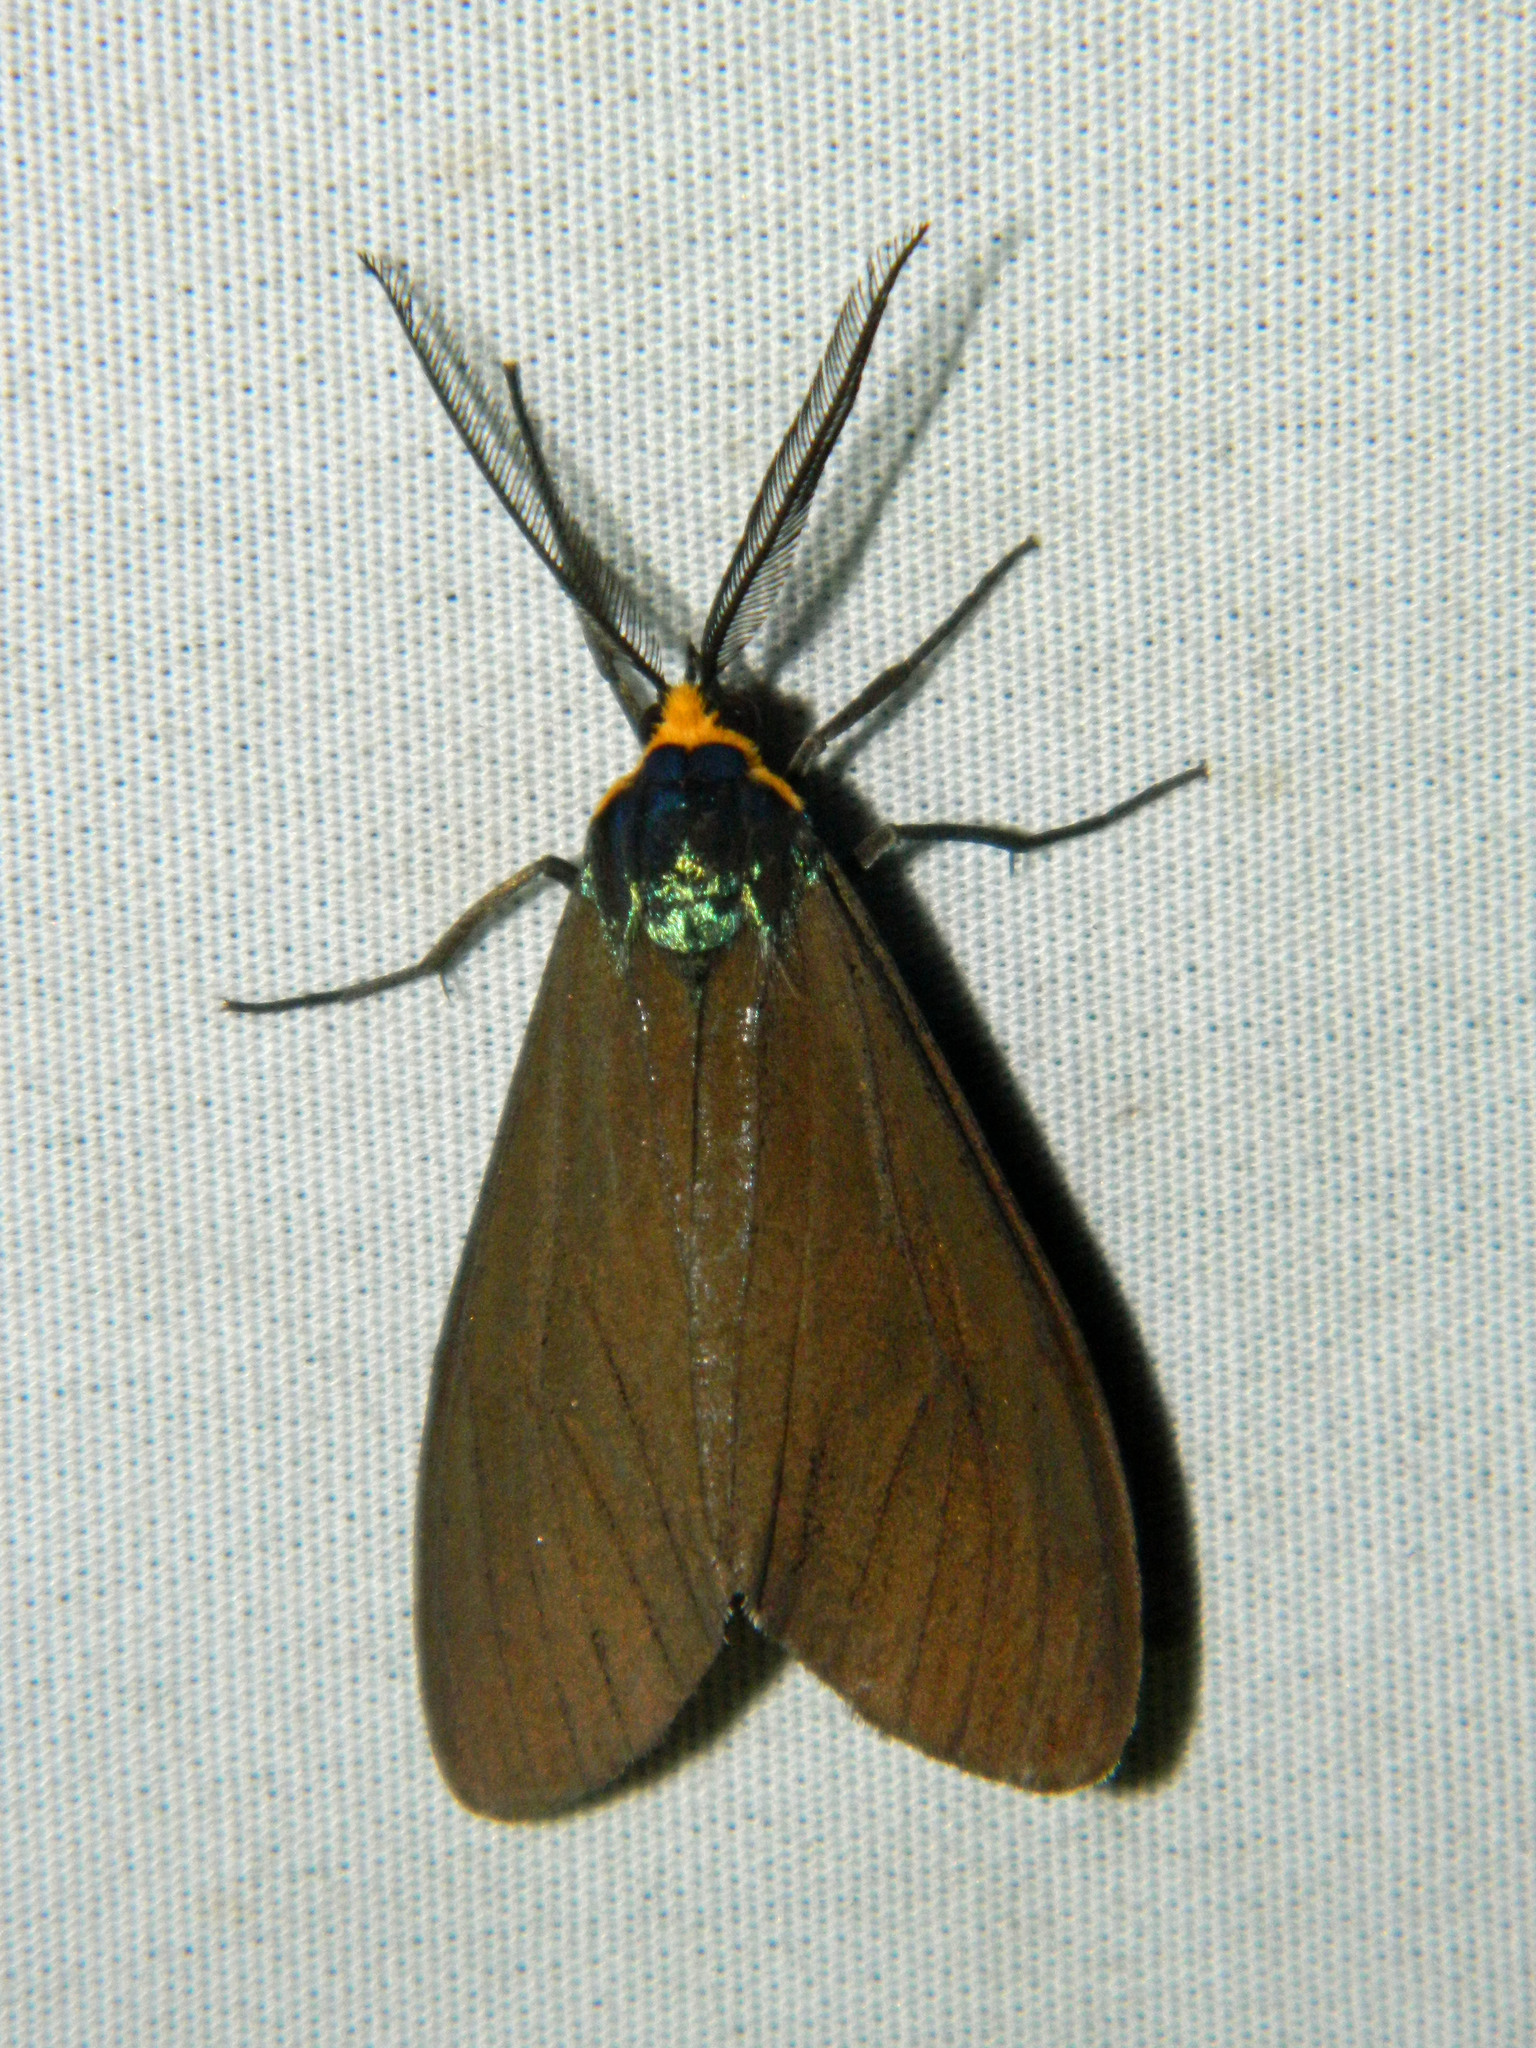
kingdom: Animalia
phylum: Arthropoda
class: Insecta
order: Lepidoptera
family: Erebidae
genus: Ctenucha
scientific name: Ctenucha virginica
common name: Virginia ctenucha moth
